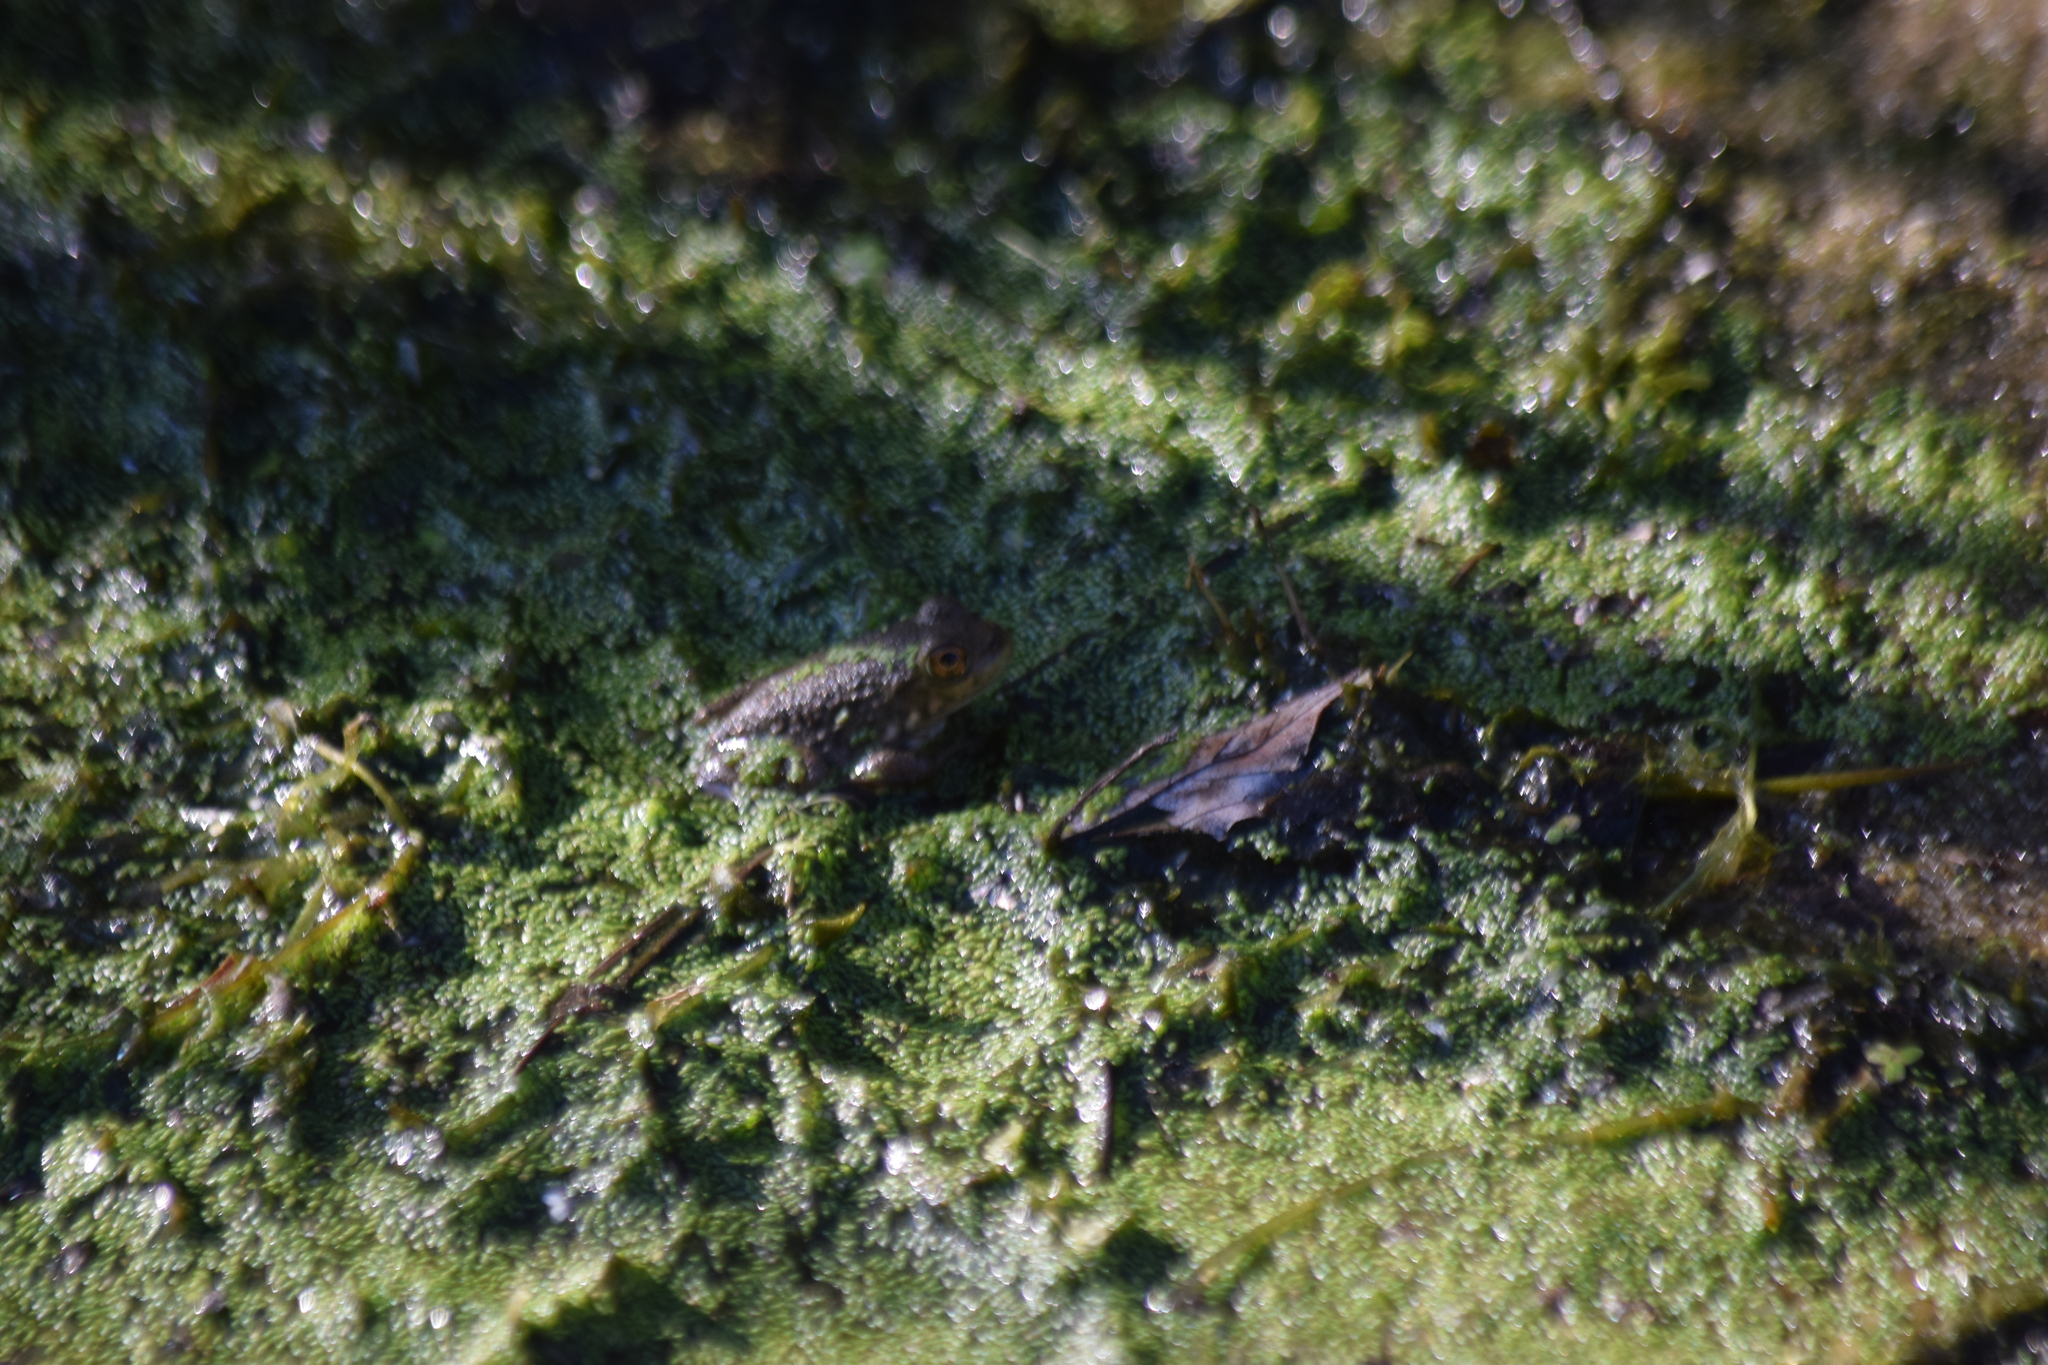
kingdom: Animalia
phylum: Chordata
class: Amphibia
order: Anura
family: Ranidae
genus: Lithobates
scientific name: Lithobates catesbeianus
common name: American bullfrog
